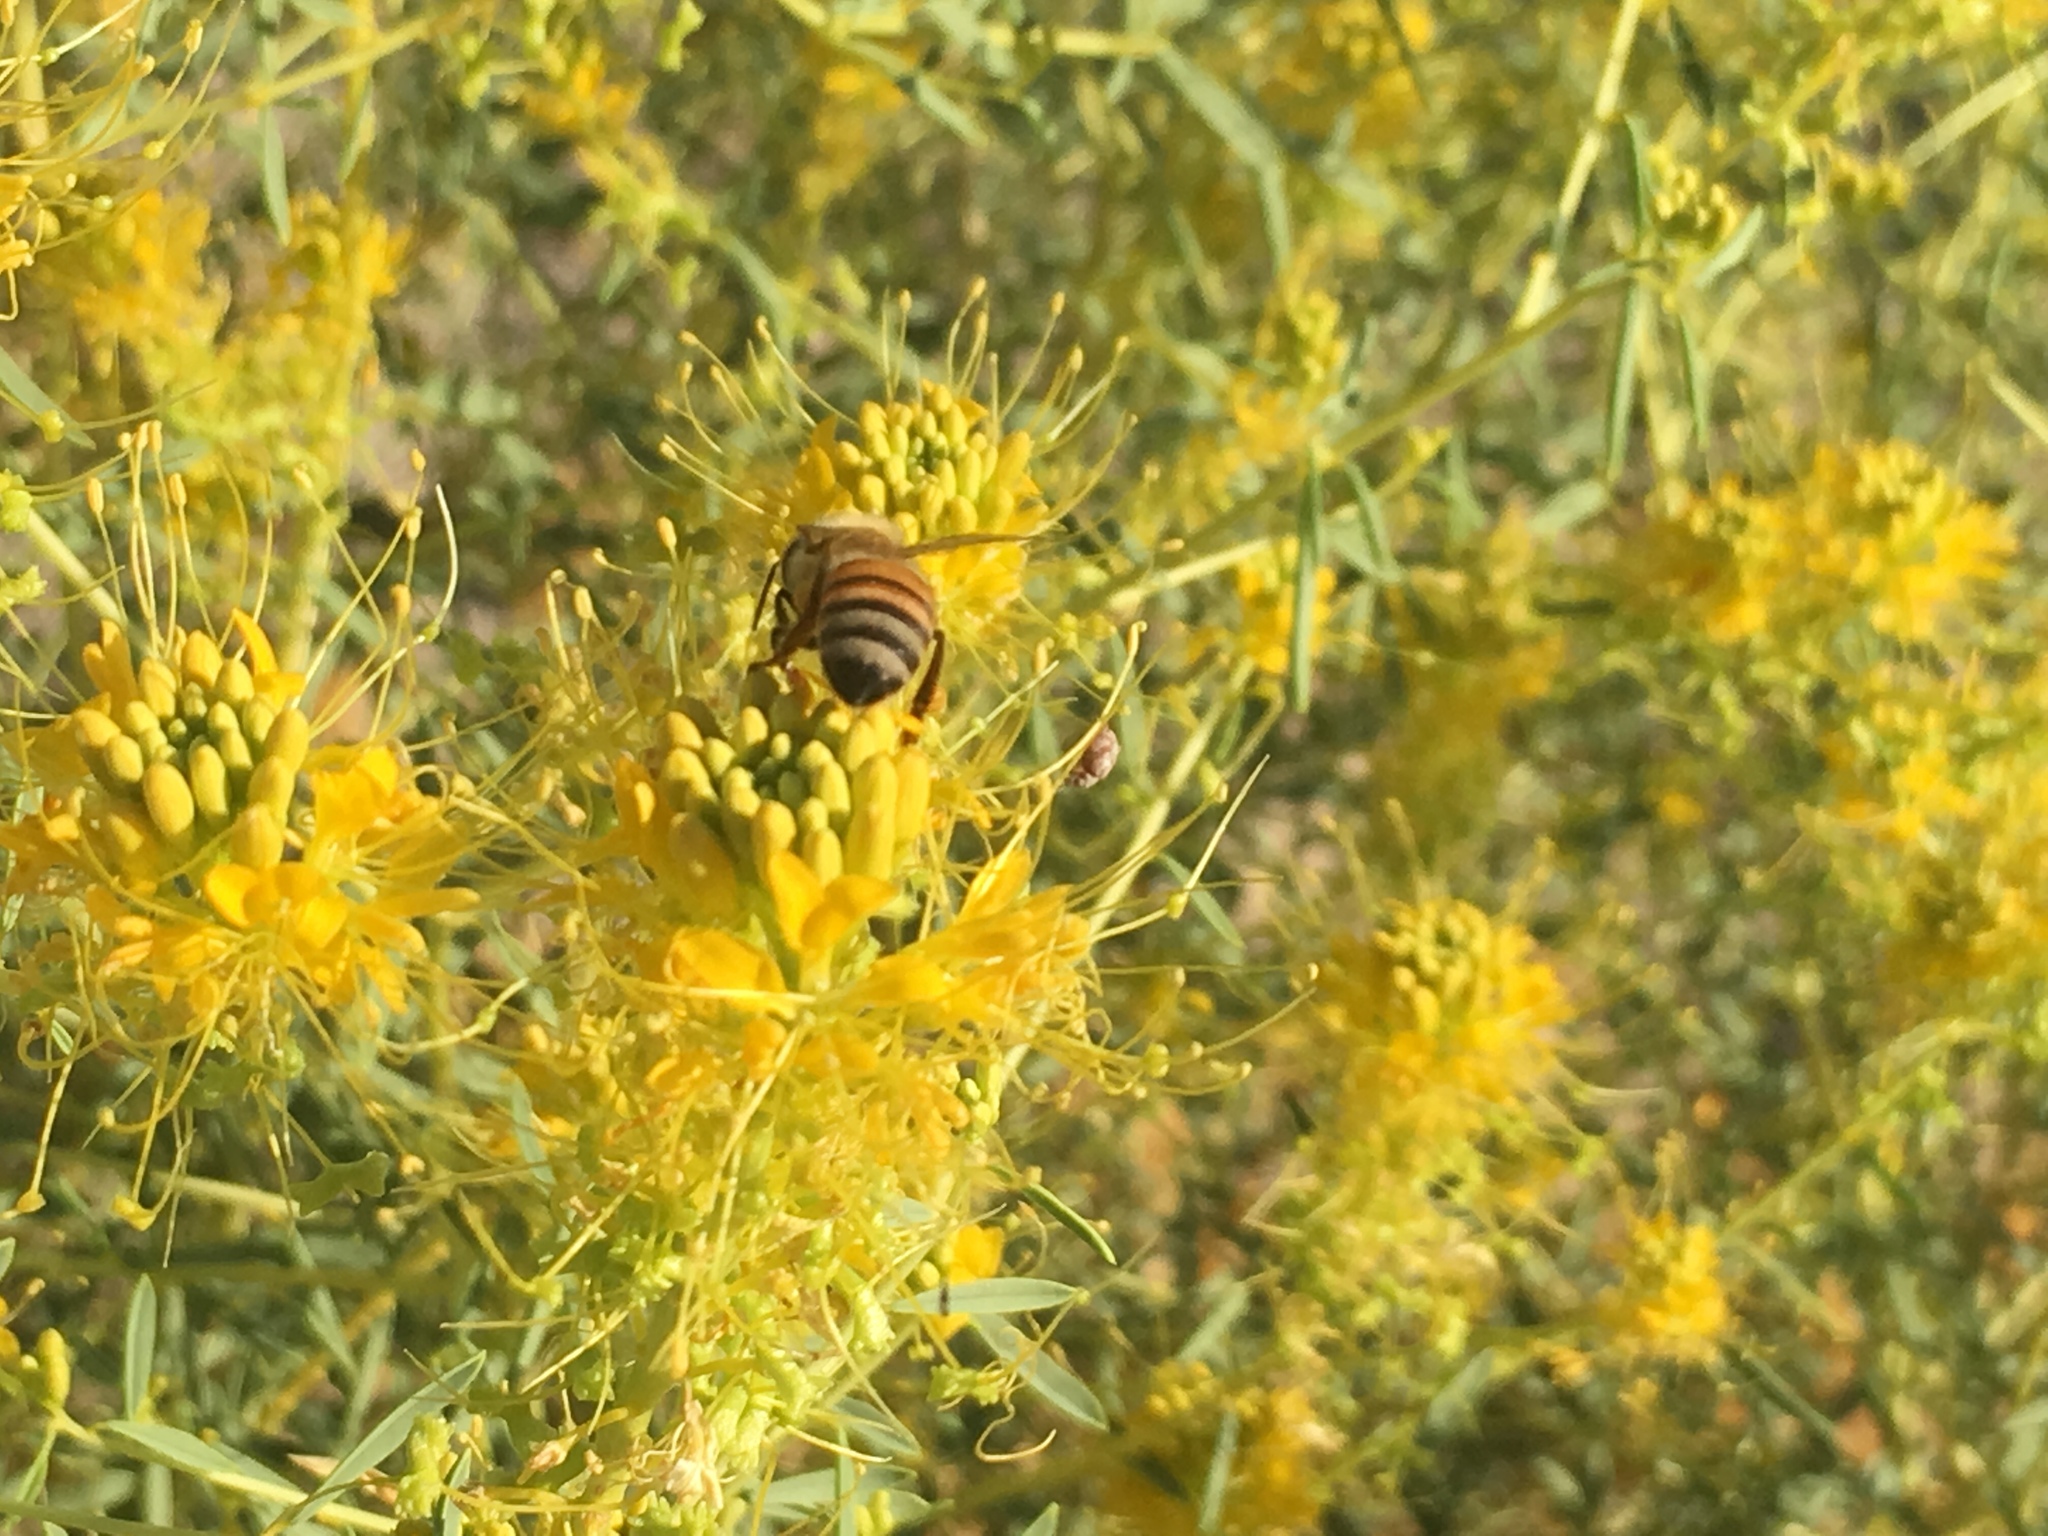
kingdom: Animalia
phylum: Arthropoda
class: Insecta
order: Hymenoptera
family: Apidae
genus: Apis
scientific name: Apis mellifera
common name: Honey bee
